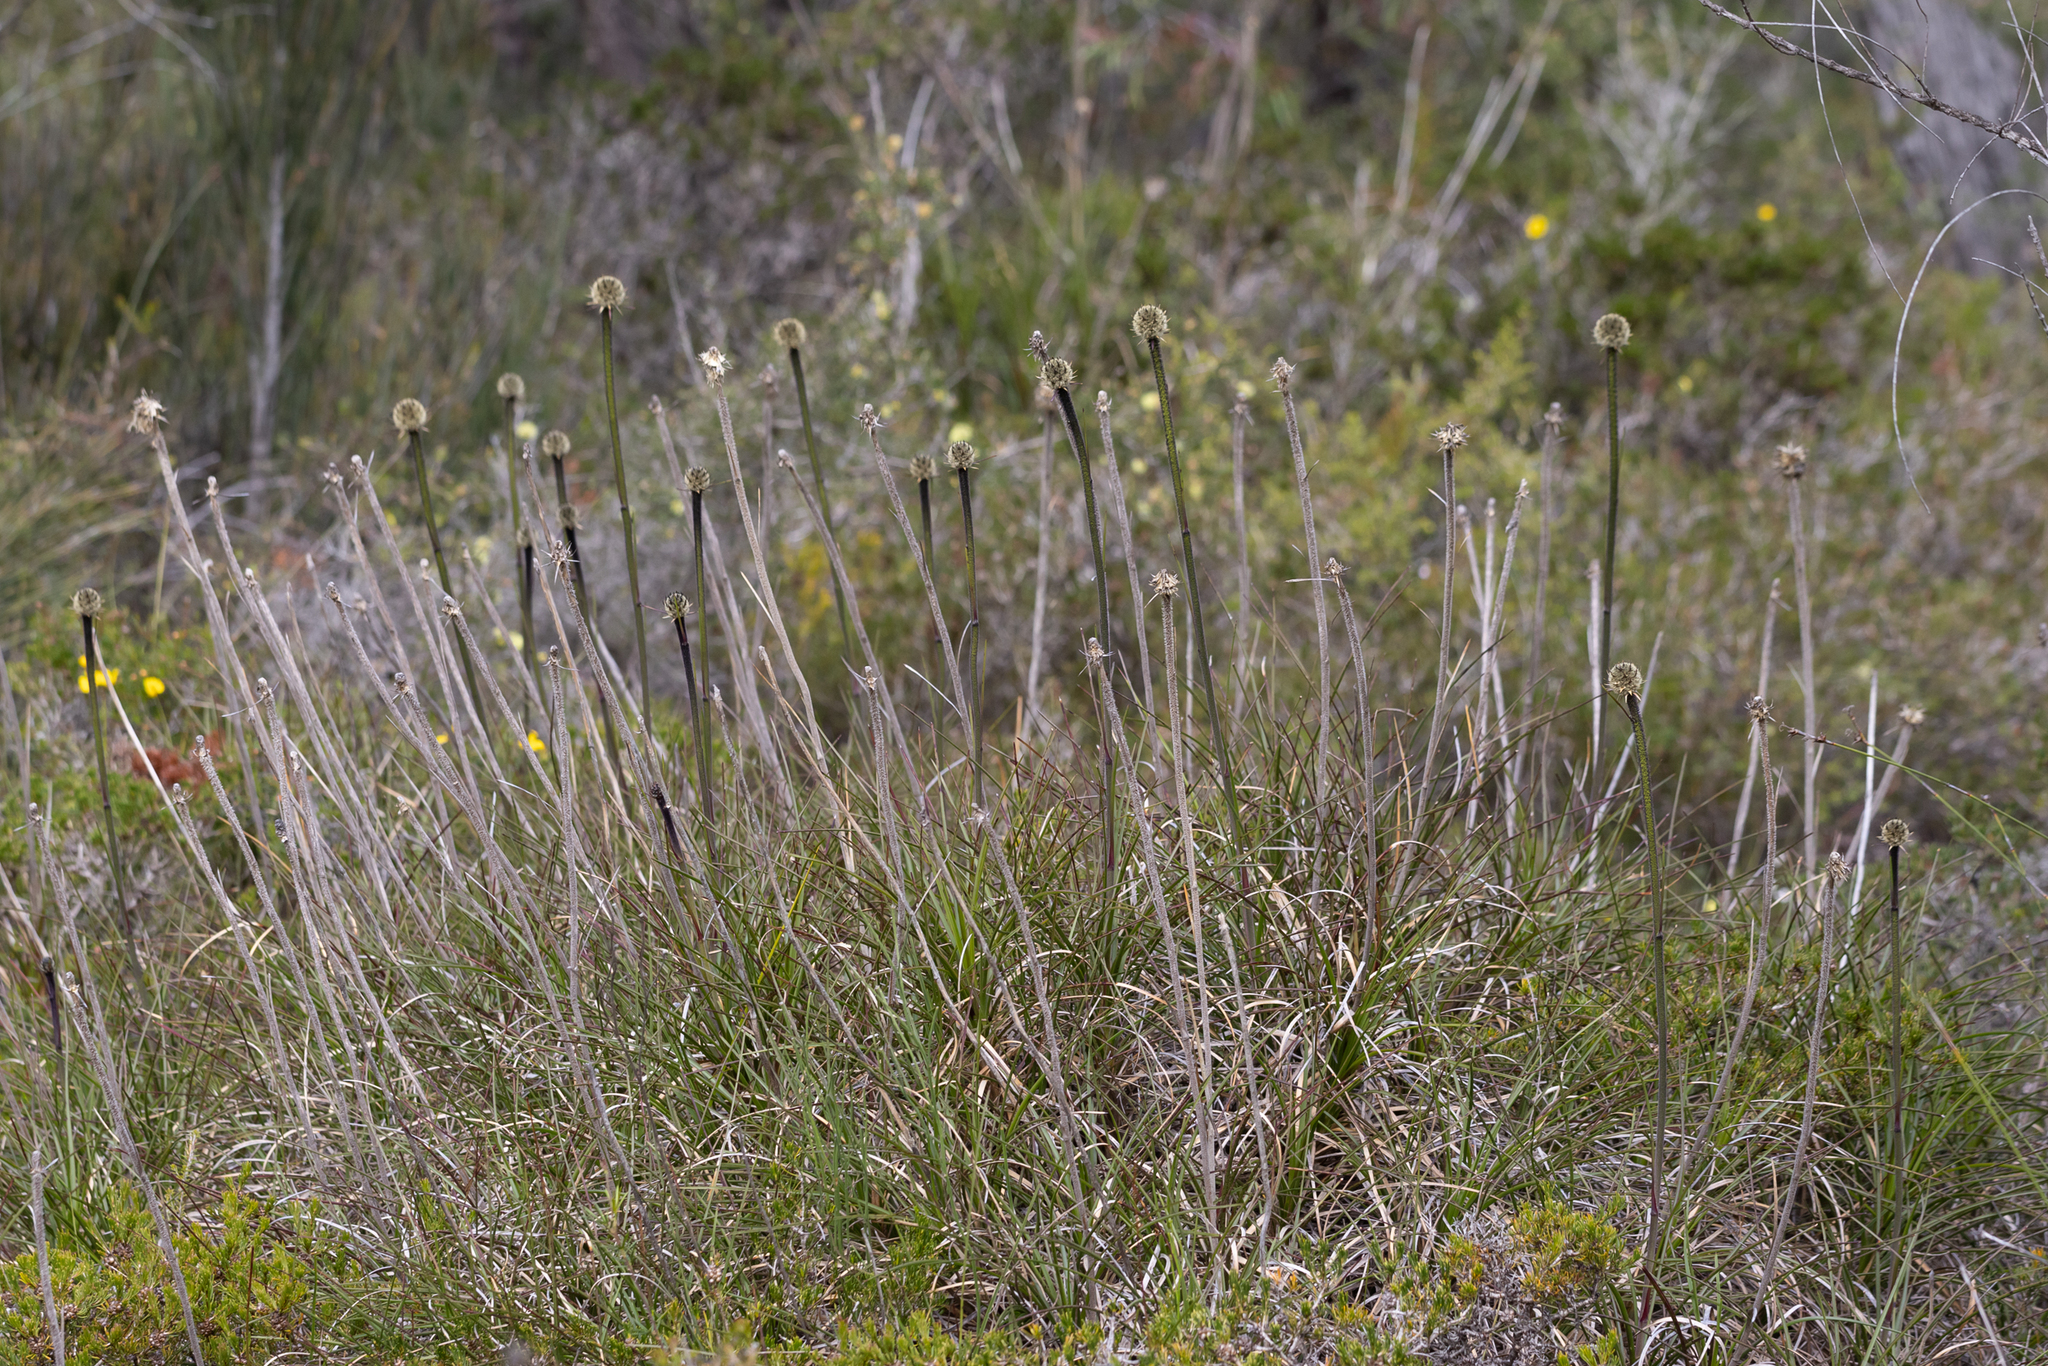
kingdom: Plantae
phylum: Tracheophyta
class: Liliopsida
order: Arecales
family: Dasypogonaceae
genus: Dasypogon
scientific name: Dasypogon bromeliifolius
